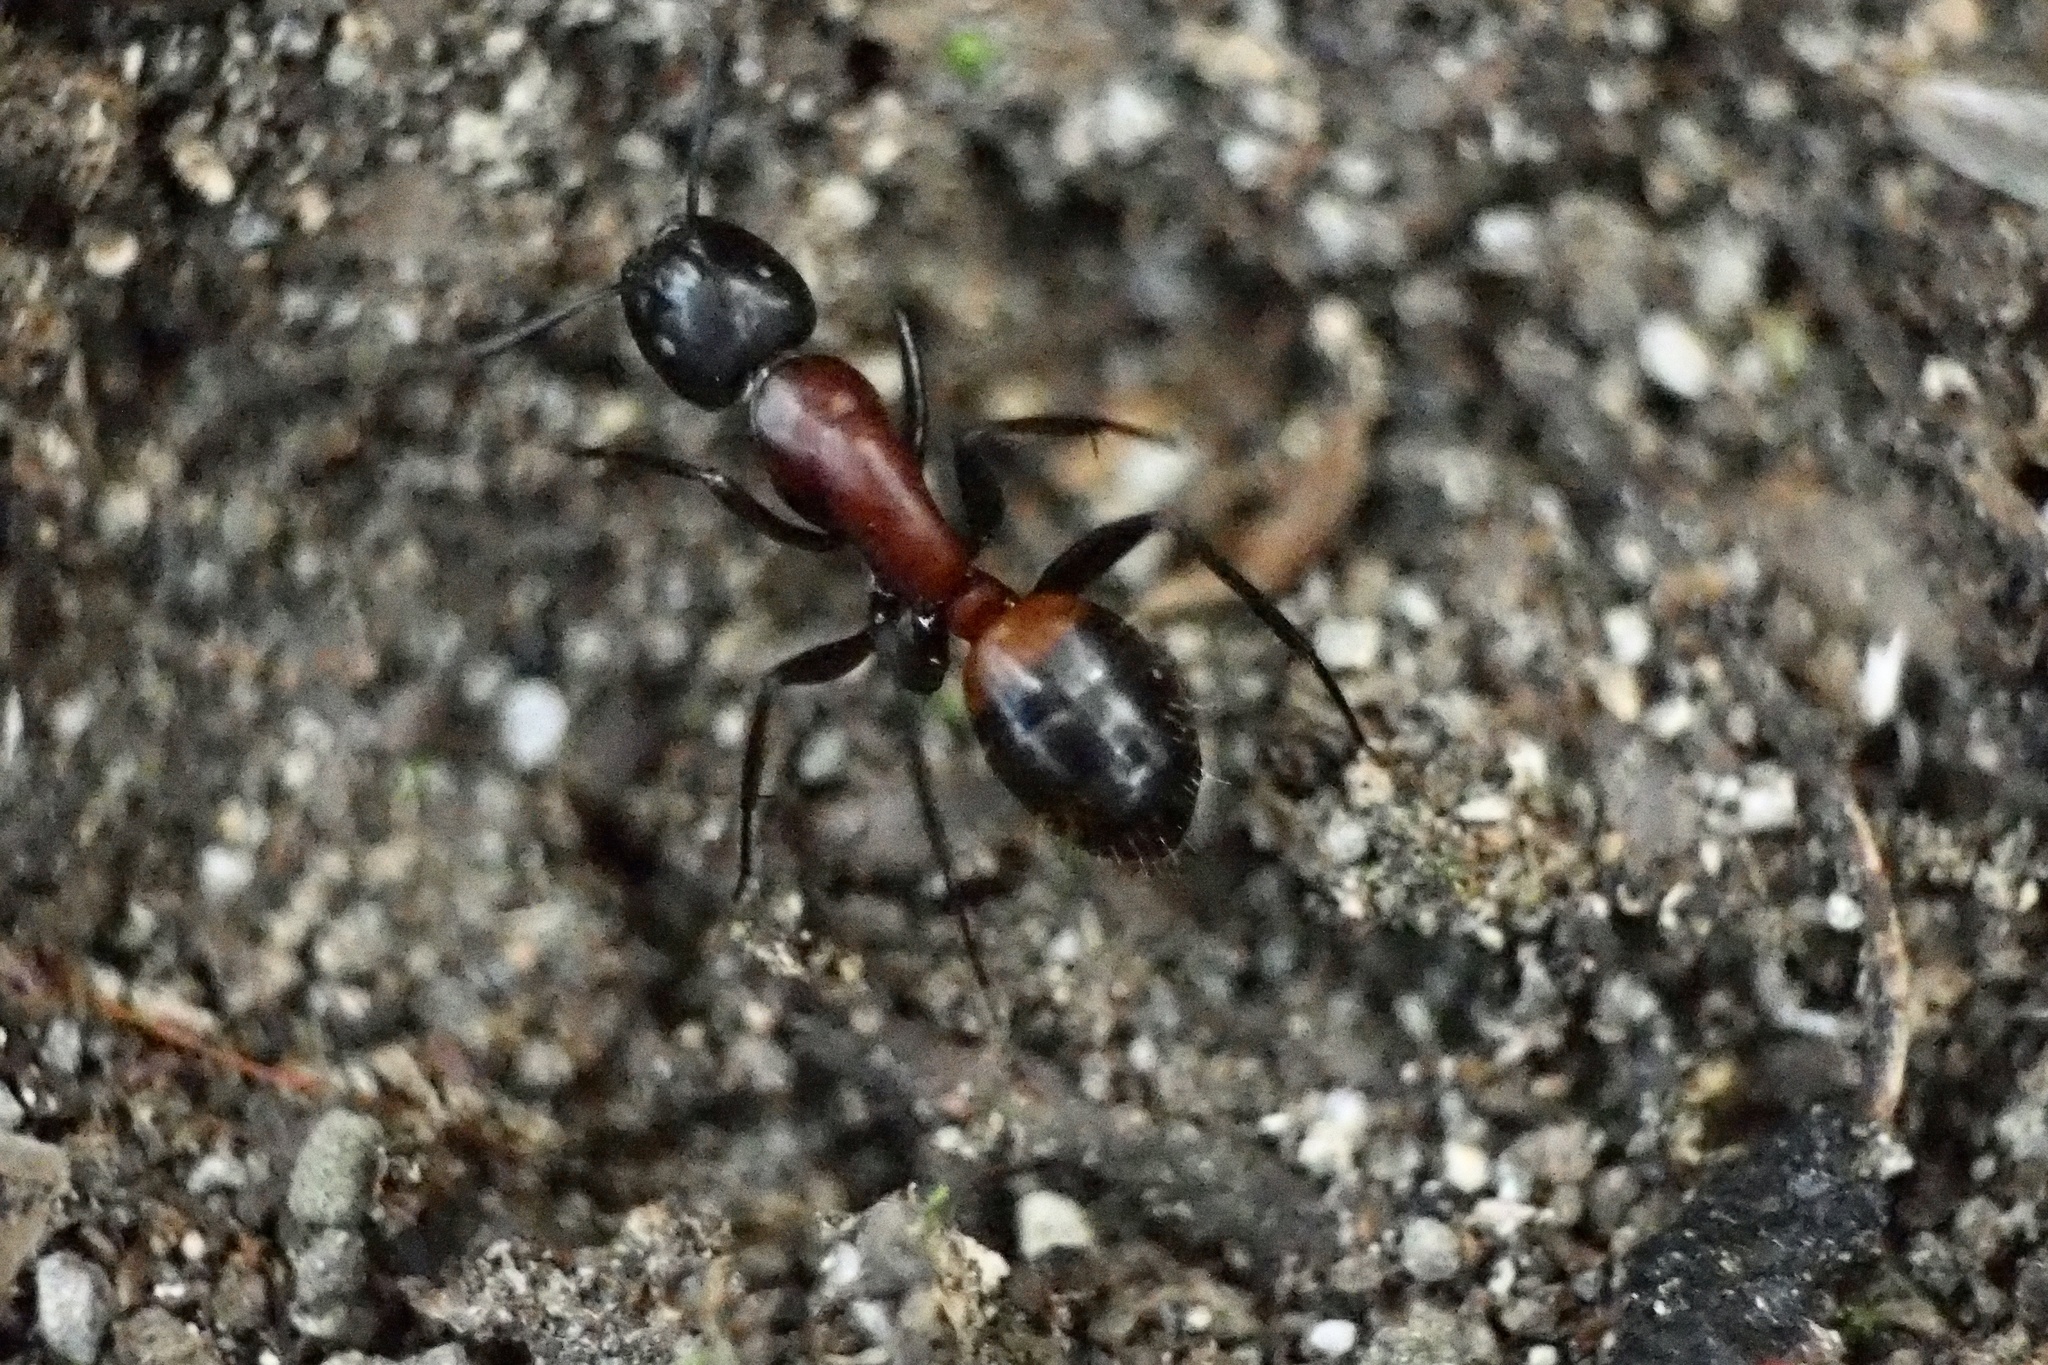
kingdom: Animalia
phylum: Arthropoda
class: Insecta
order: Hymenoptera
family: Formicidae
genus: Camponotus
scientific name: Camponotus obscuripes
